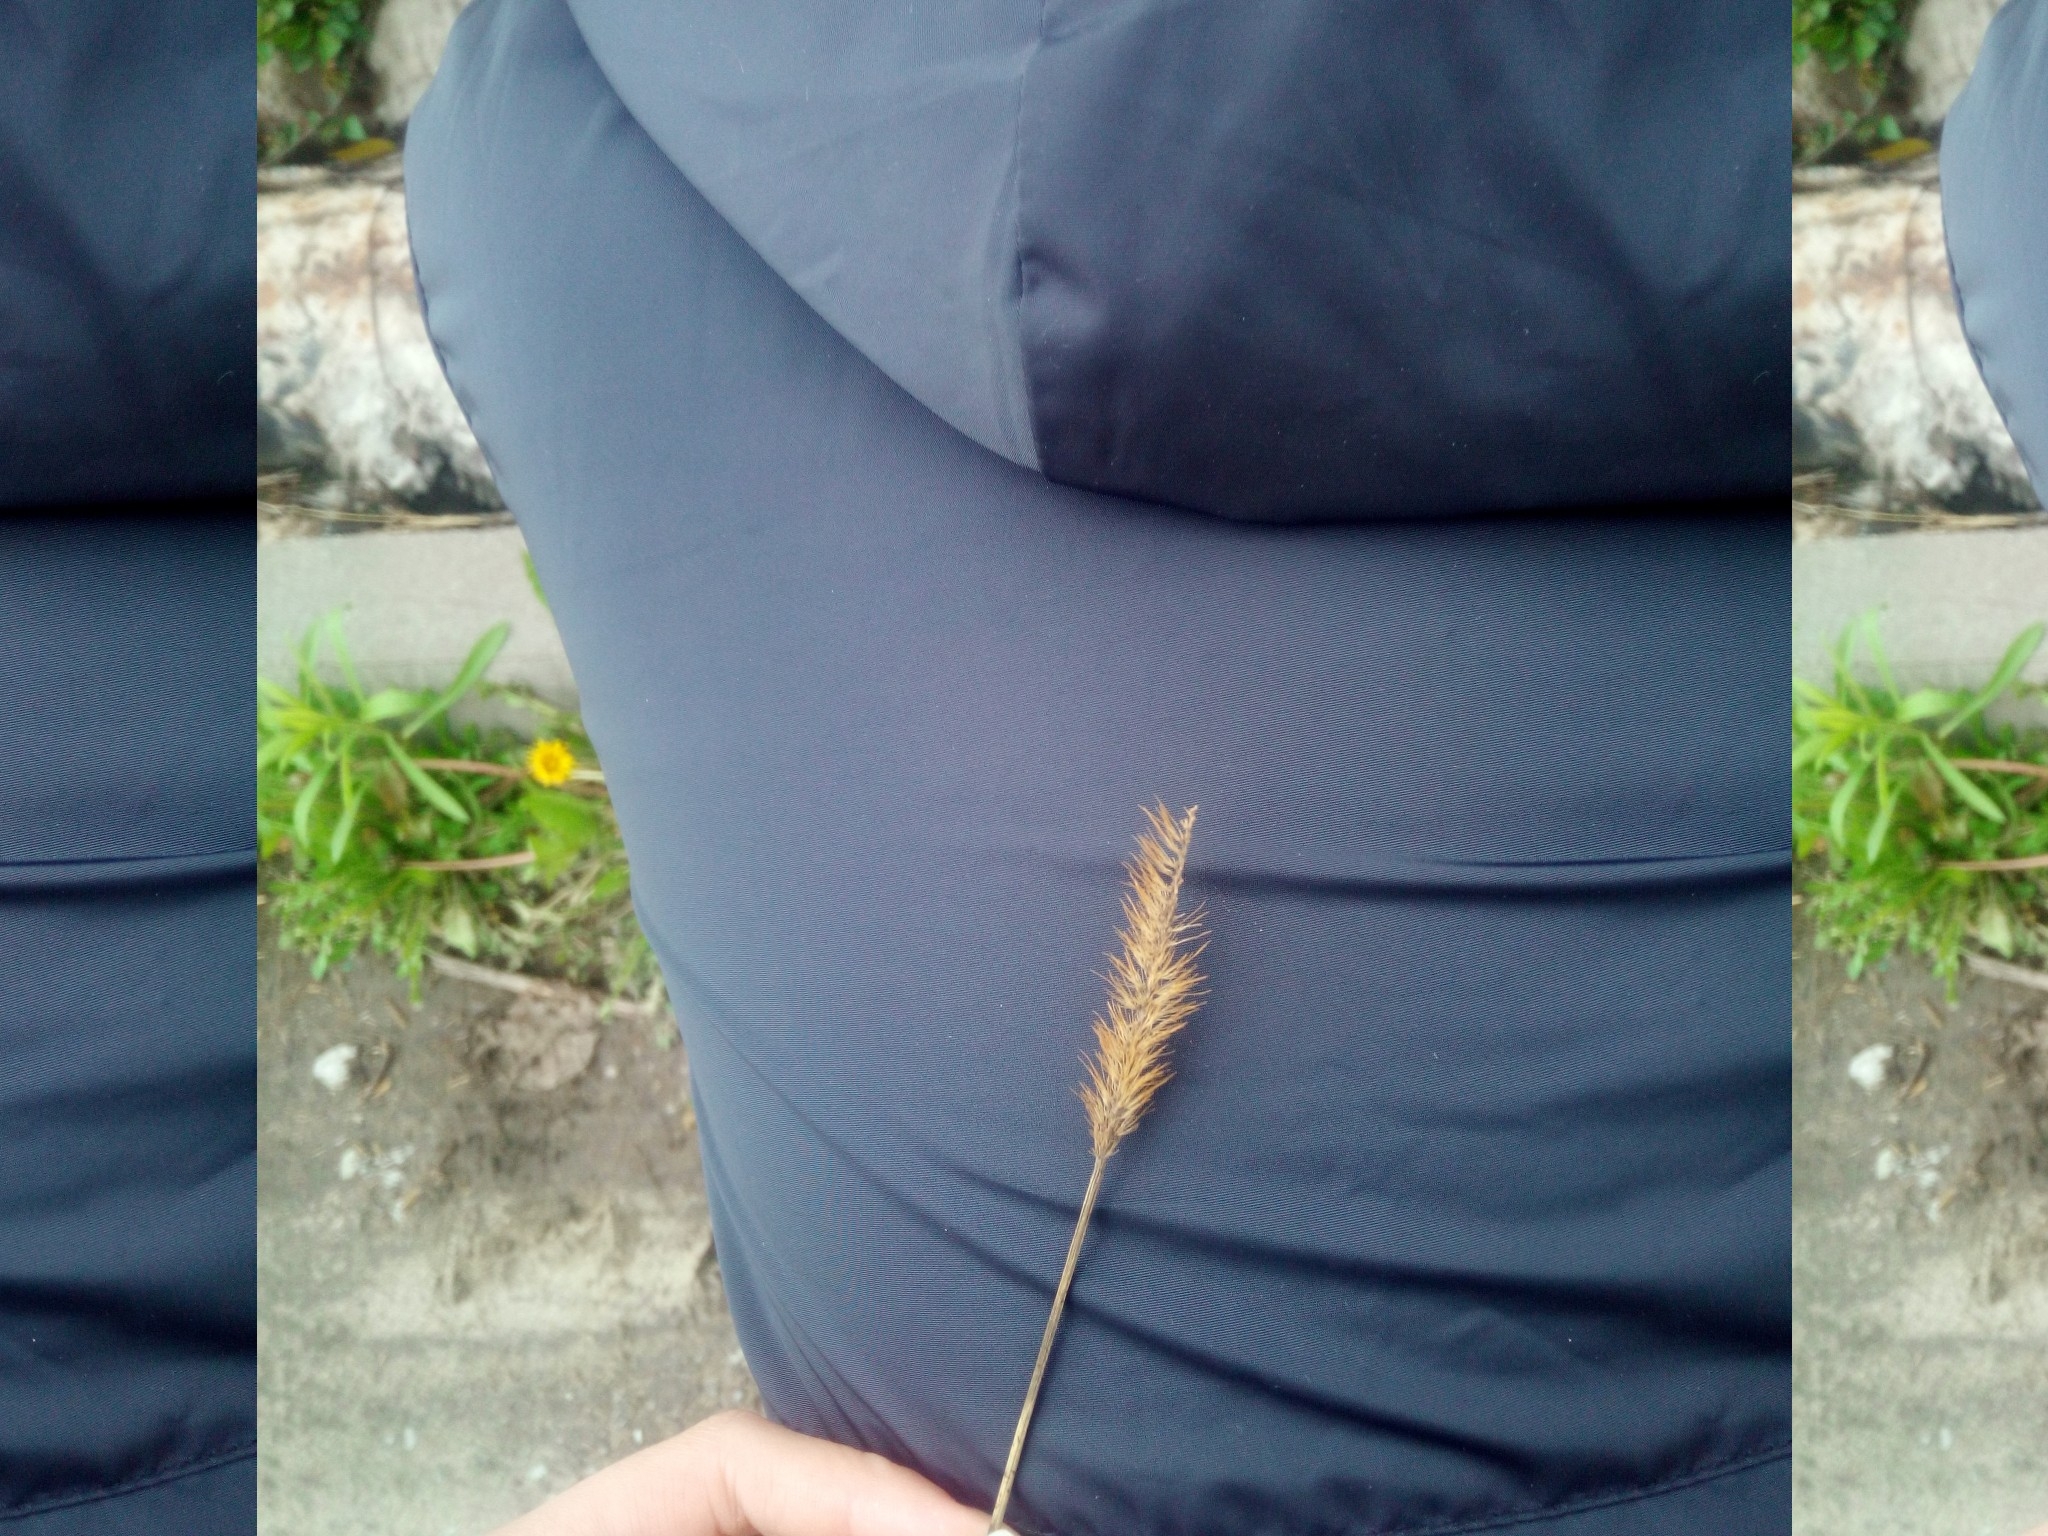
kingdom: Plantae
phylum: Tracheophyta
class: Liliopsida
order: Poales
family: Poaceae
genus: Setaria
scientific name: Setaria pumila
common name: Yellow bristle-grass
